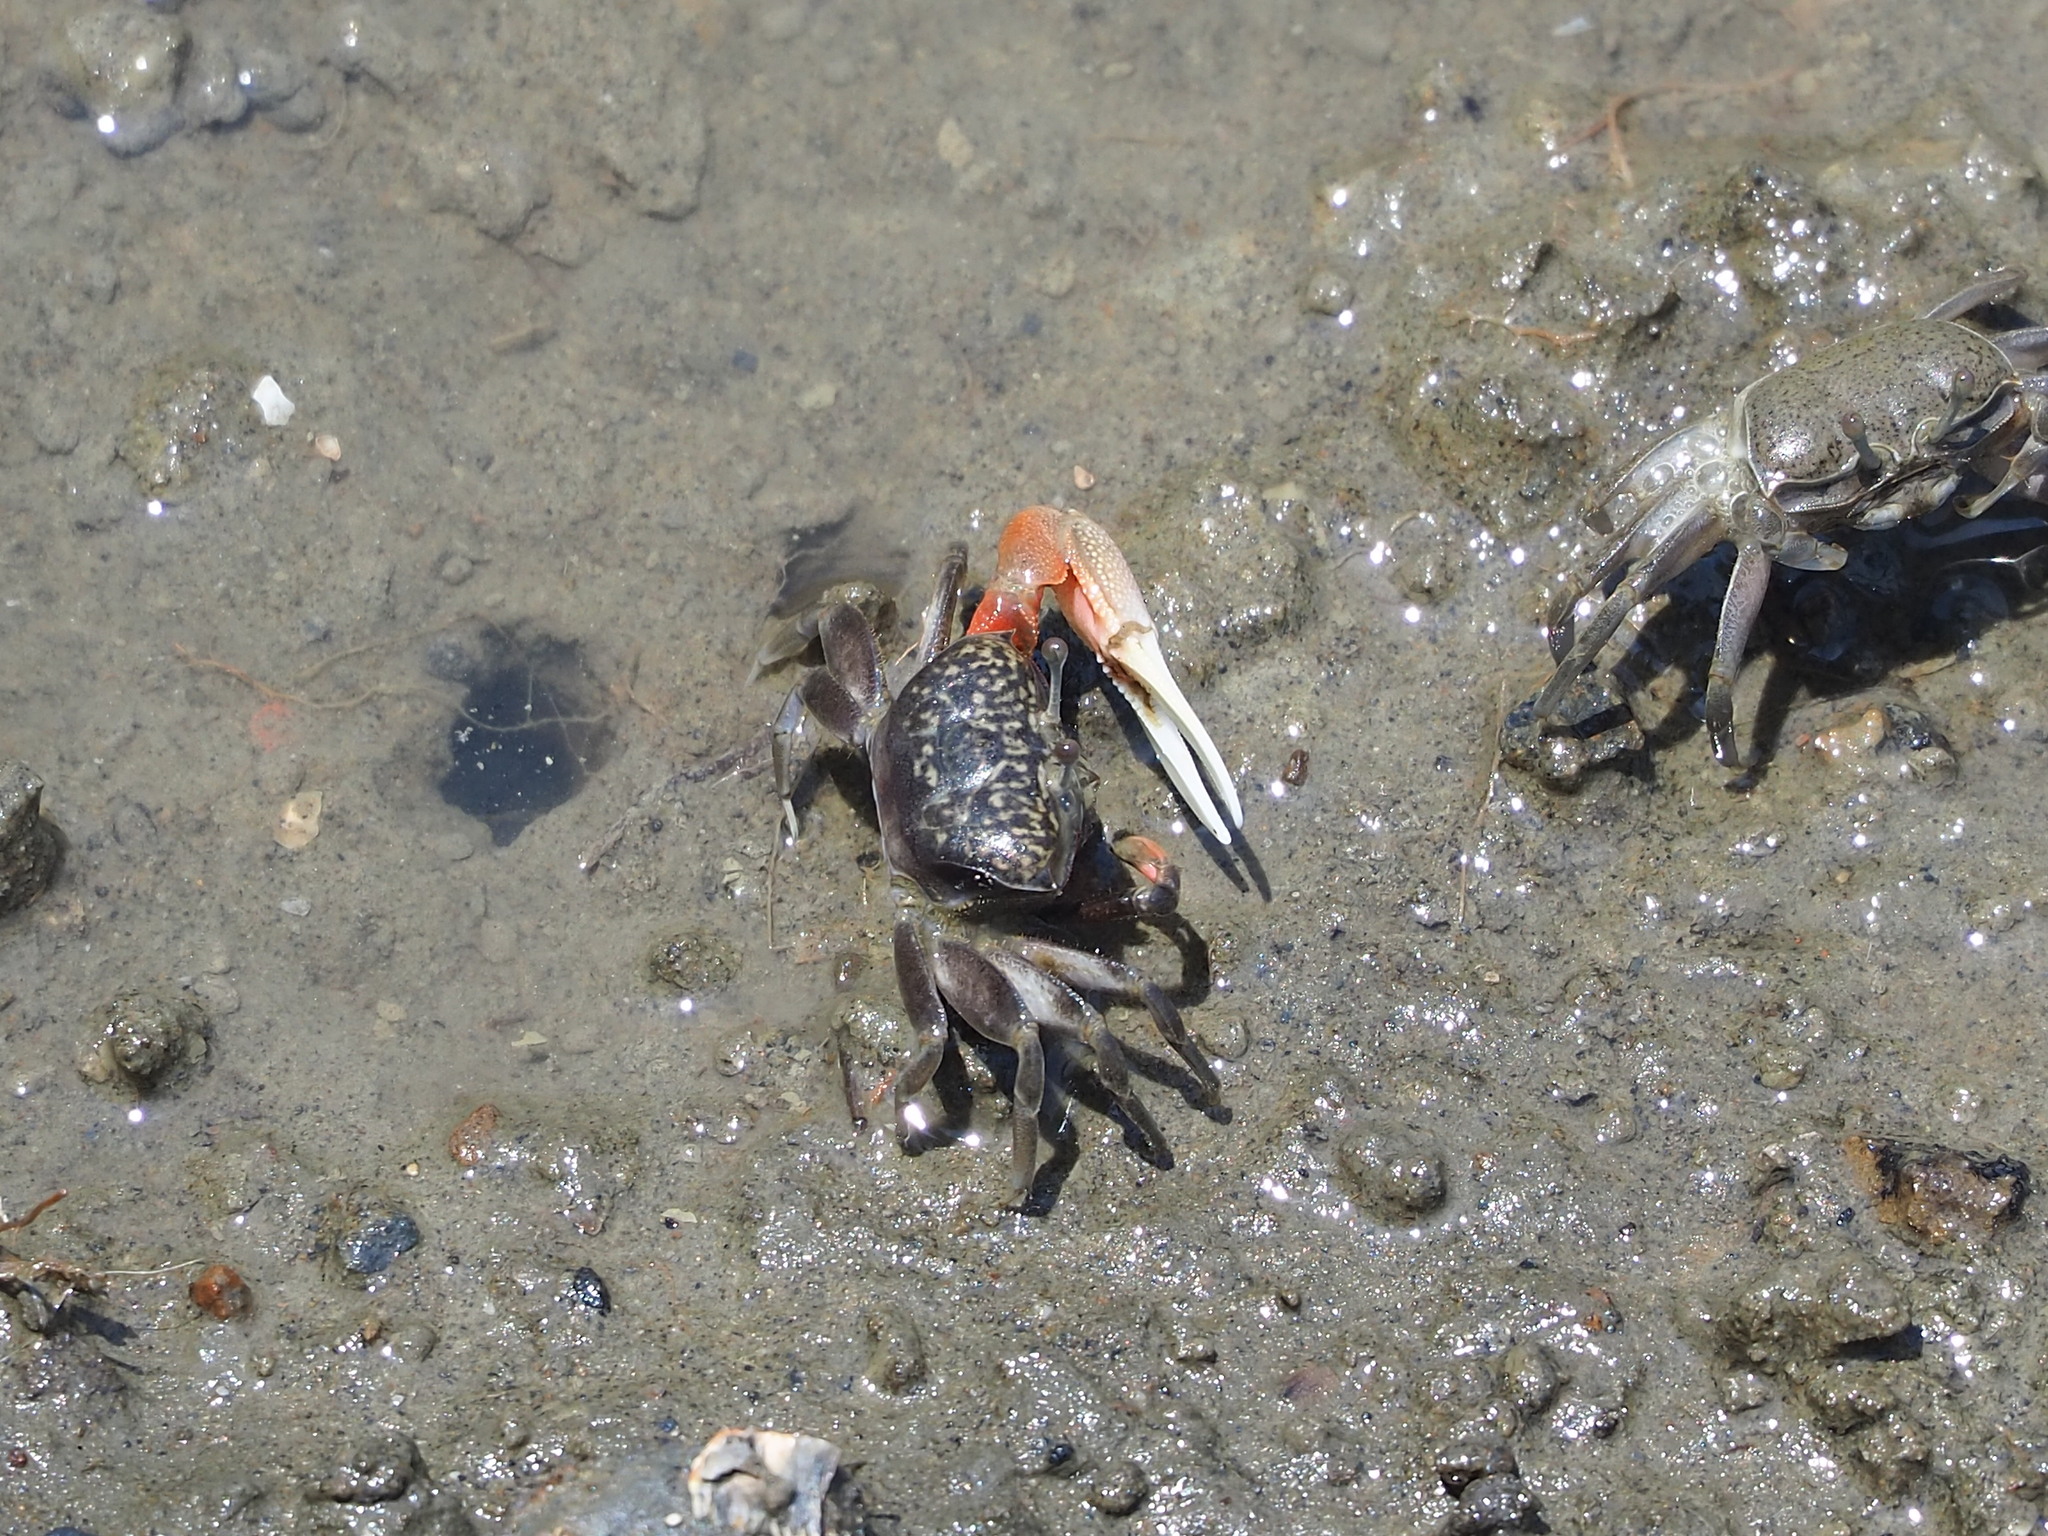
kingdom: Animalia
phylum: Arthropoda
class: Malacostraca
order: Decapoda
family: Ocypodidae
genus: Tubuca
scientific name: Tubuca arcuata
